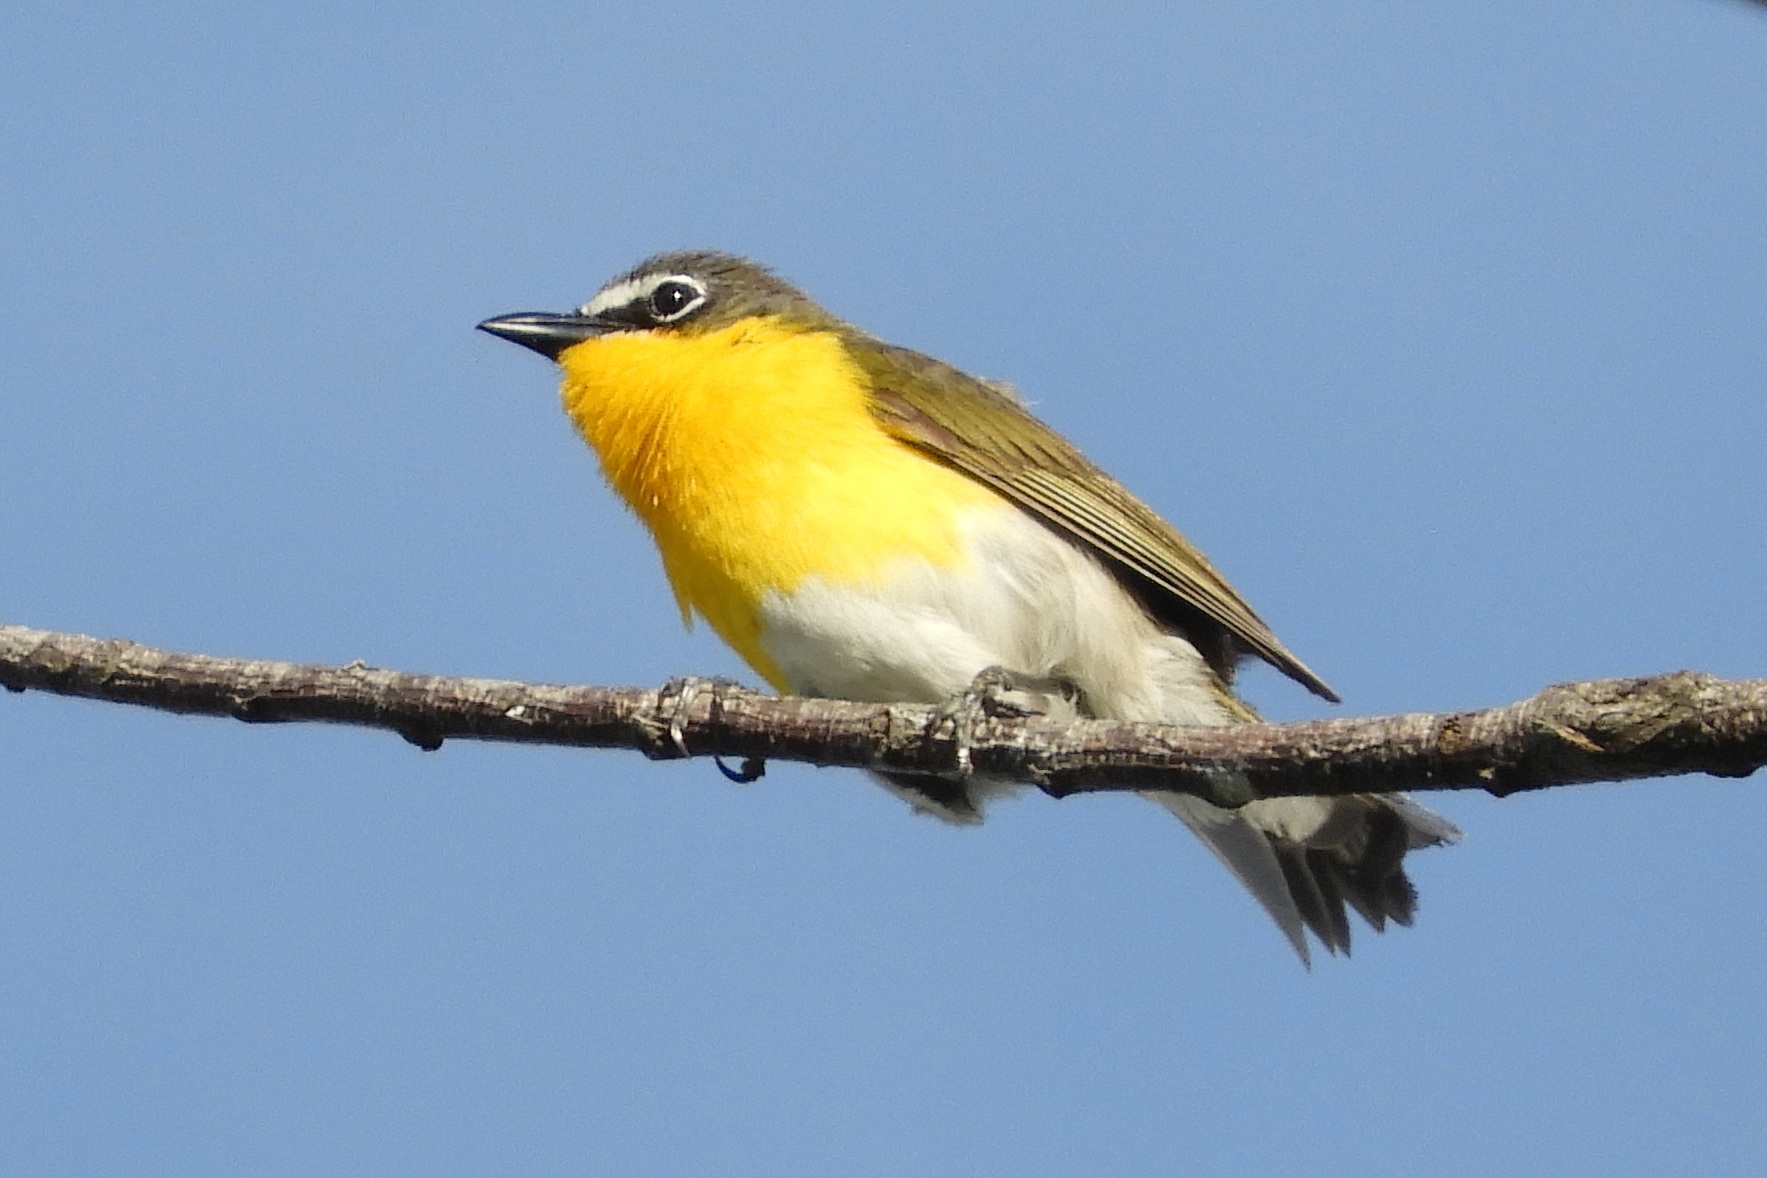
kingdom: Animalia
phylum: Chordata
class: Aves
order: Passeriformes
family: Parulidae
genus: Icteria
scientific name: Icteria virens
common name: Yellow-breasted chat
